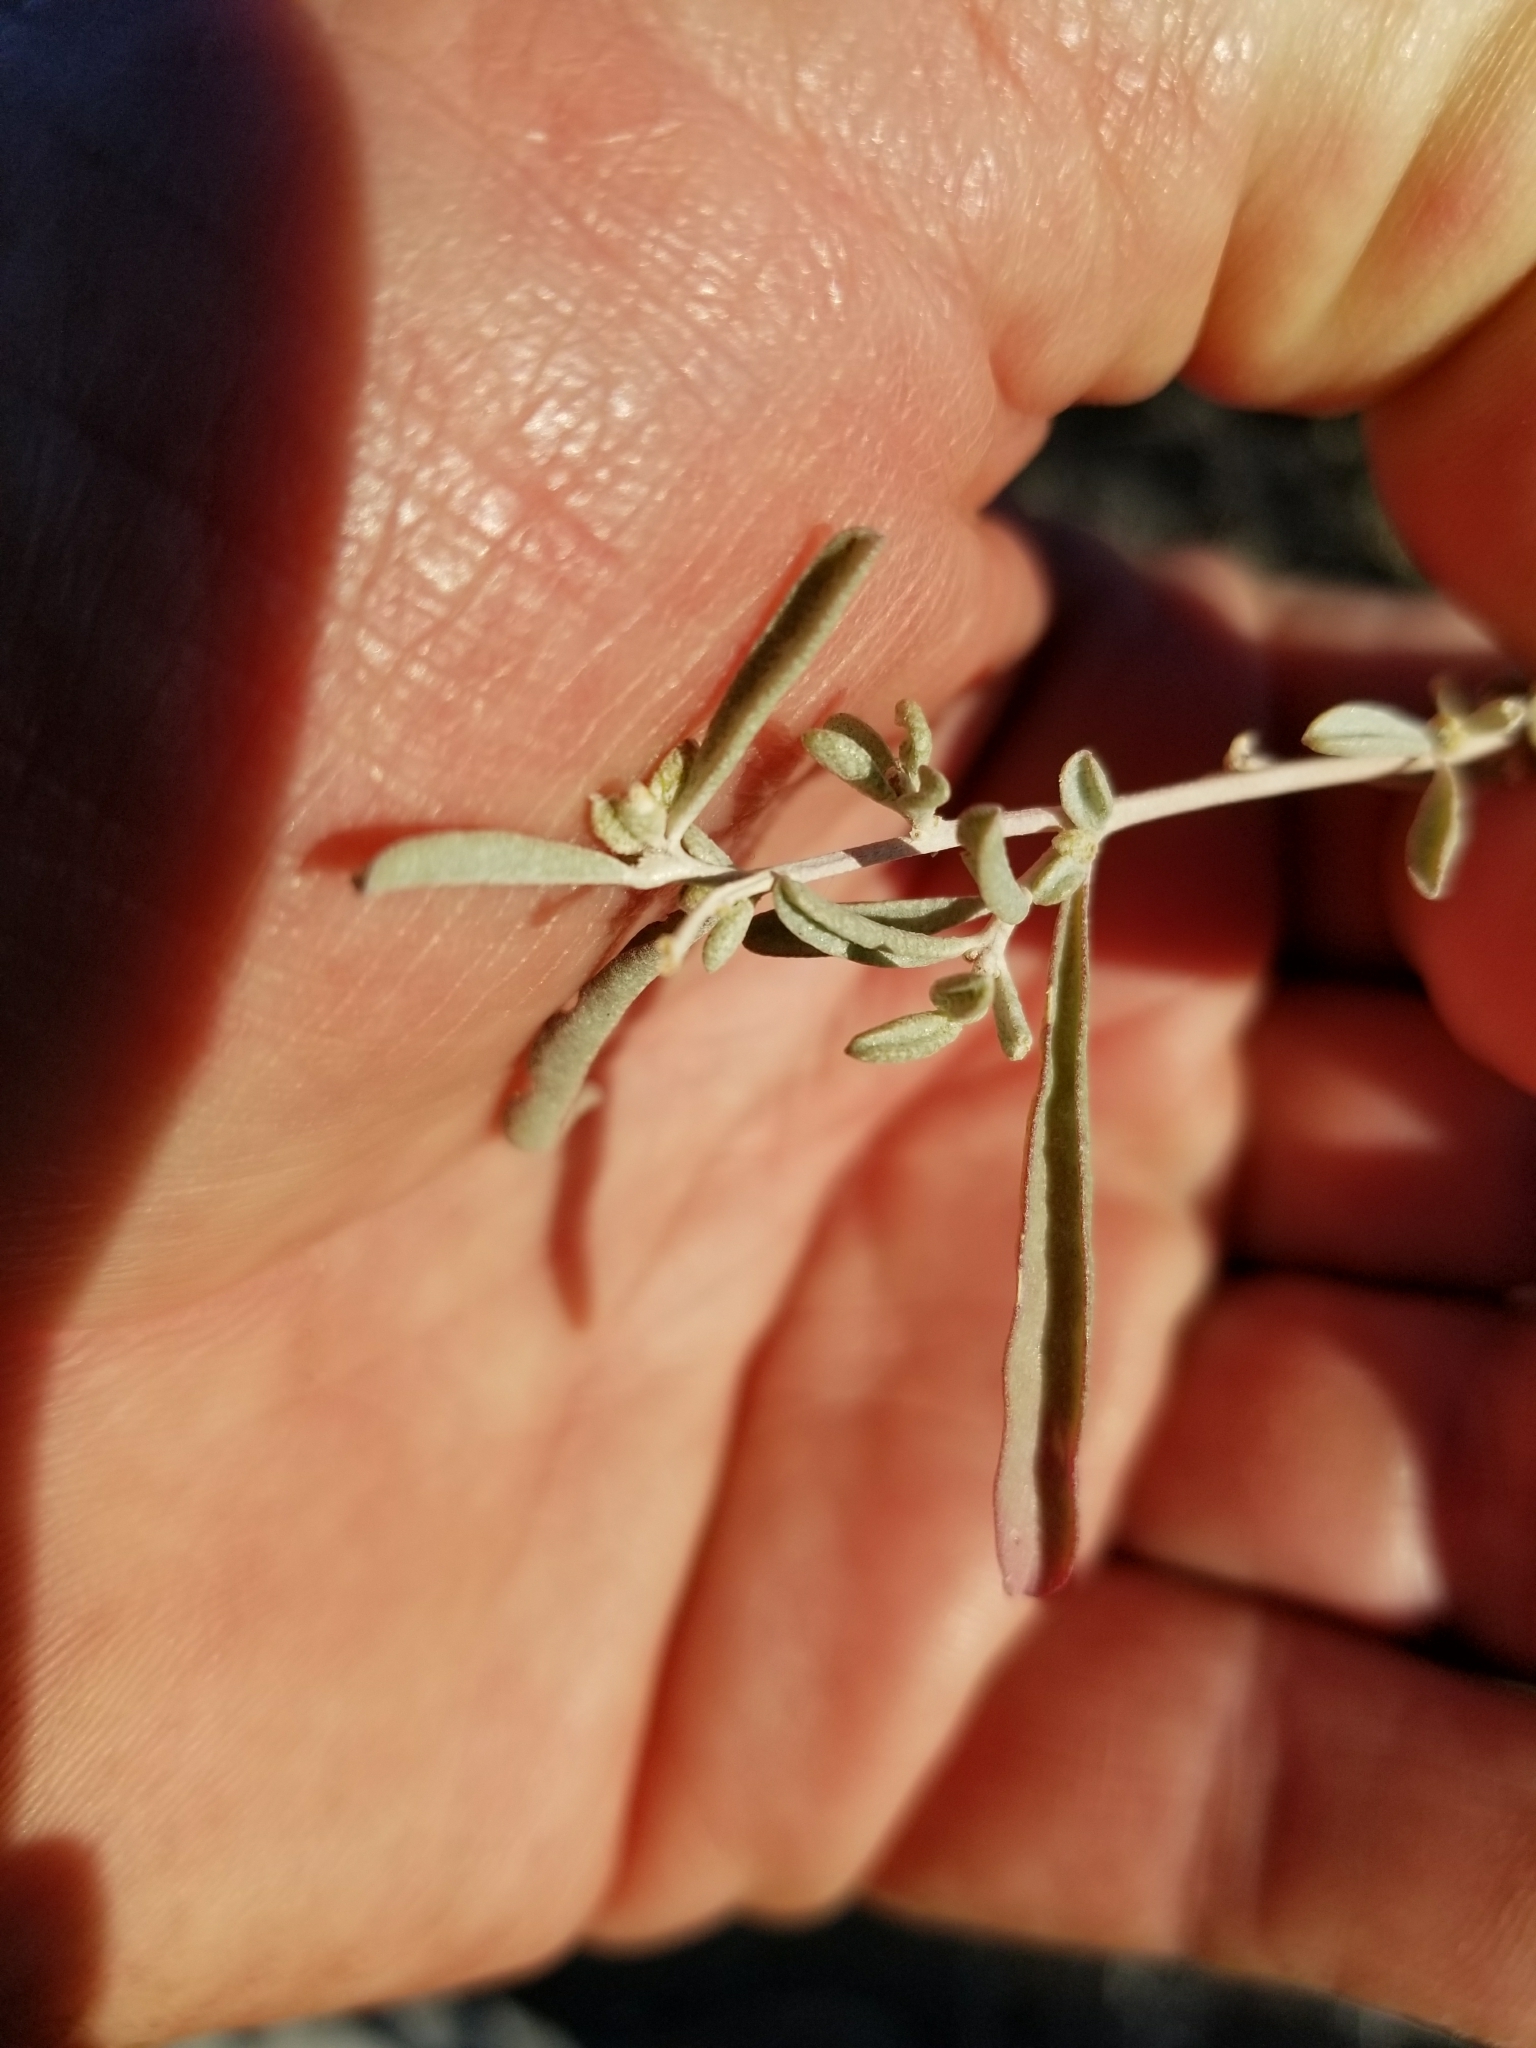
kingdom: Plantae
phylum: Tracheophyta
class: Magnoliopsida
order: Caryophyllales
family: Amaranthaceae
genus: Atriplex
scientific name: Atriplex linearis
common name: Slender-leaf saltbush
